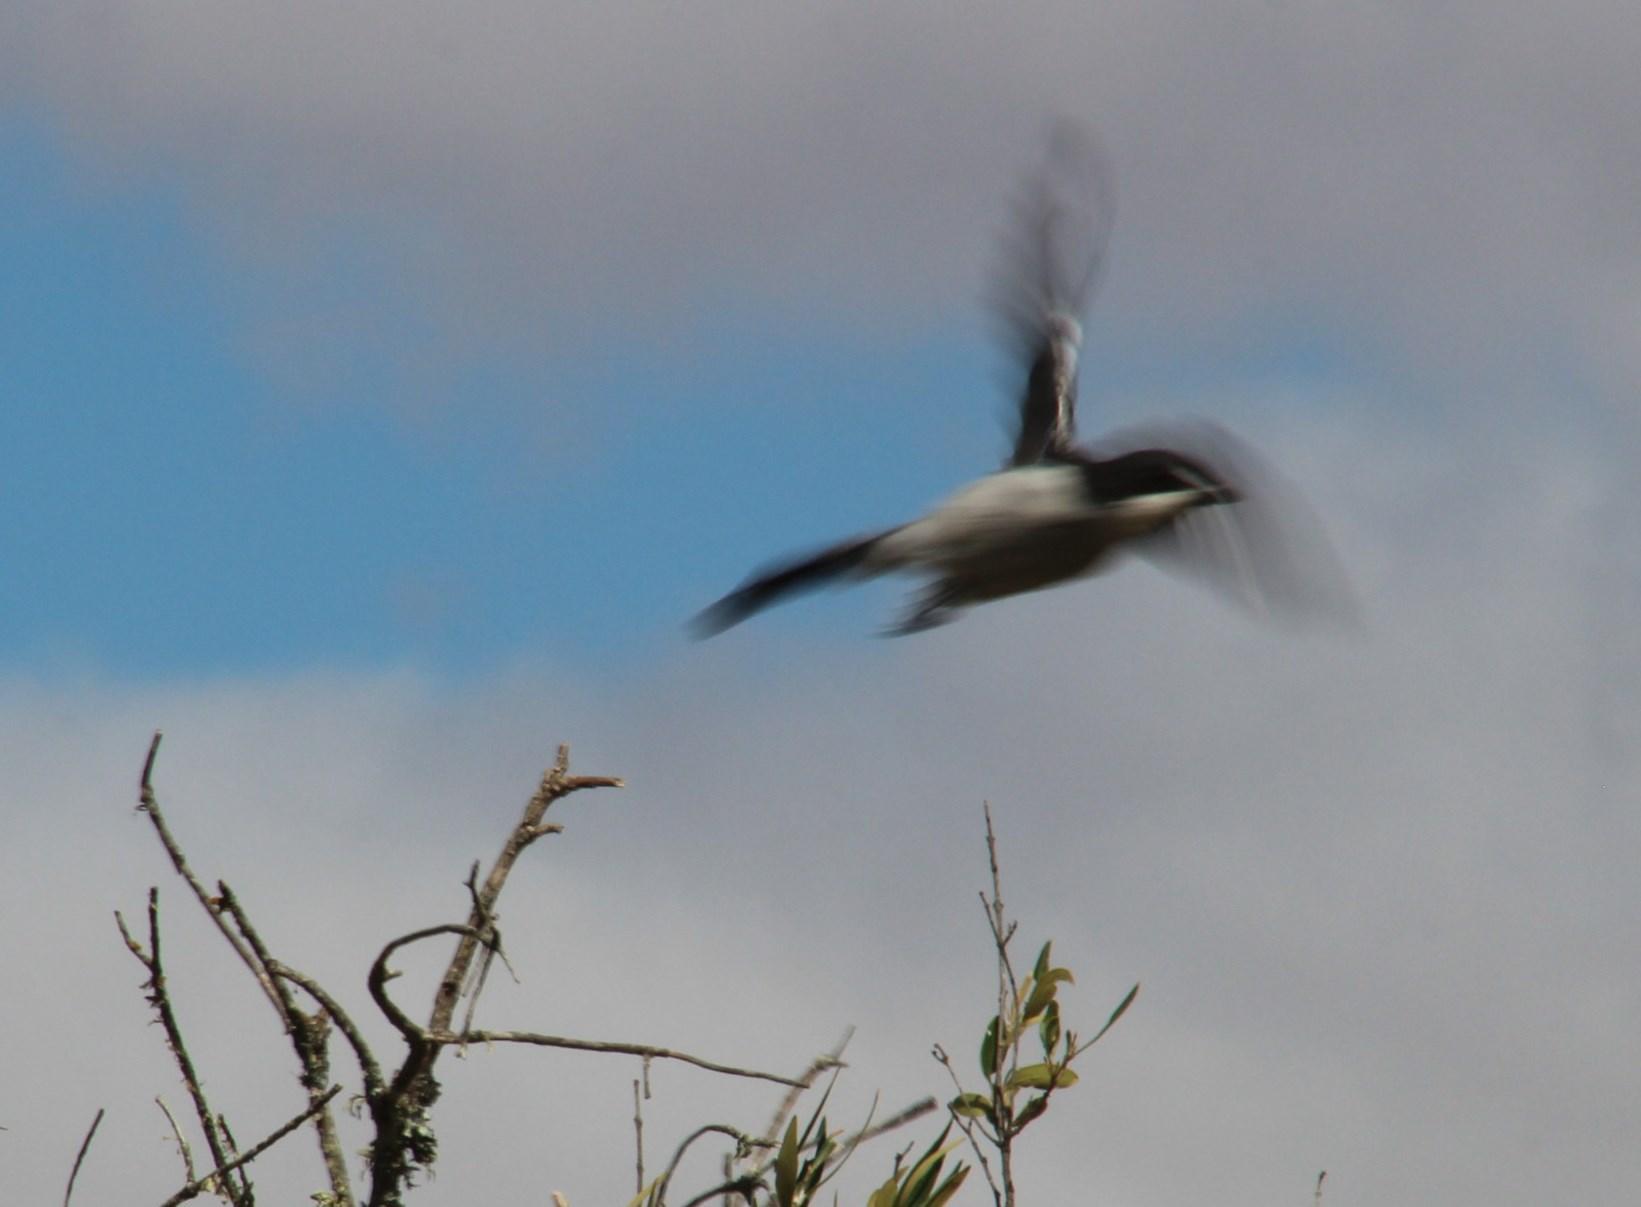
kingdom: Animalia
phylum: Chordata
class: Aves
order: Passeriformes
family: Laniidae
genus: Lanius
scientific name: Lanius collaris
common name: Southern fiscal
